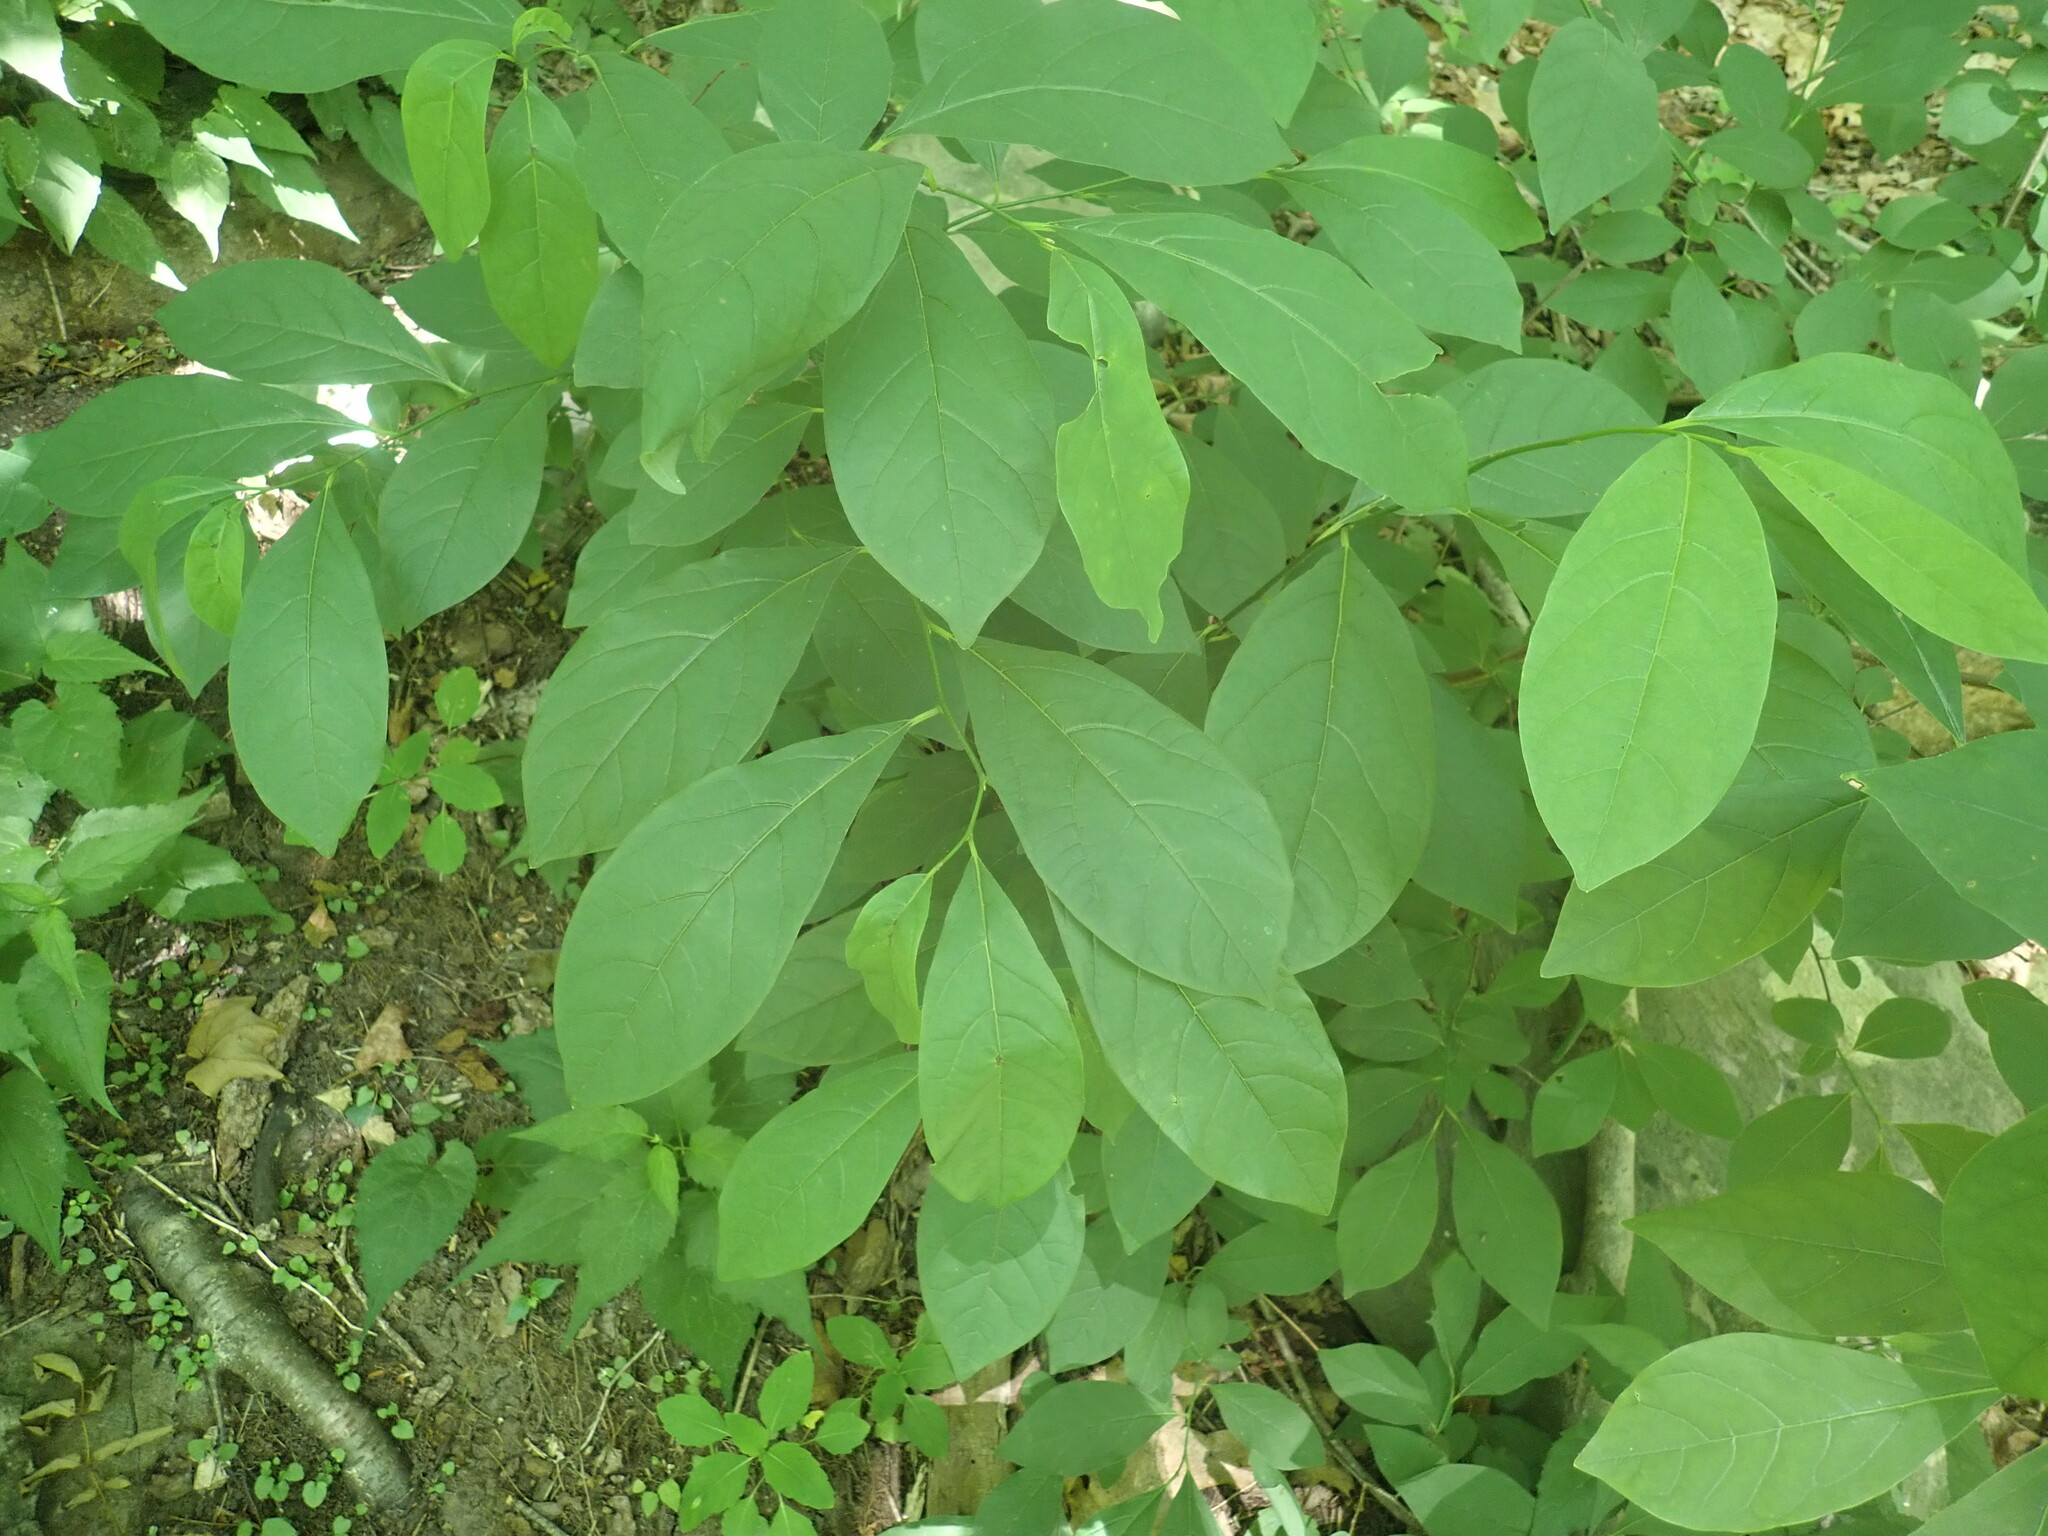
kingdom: Plantae
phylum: Tracheophyta
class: Magnoliopsida
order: Laurales
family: Lauraceae
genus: Lindera
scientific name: Lindera benzoin
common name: Spicebush
